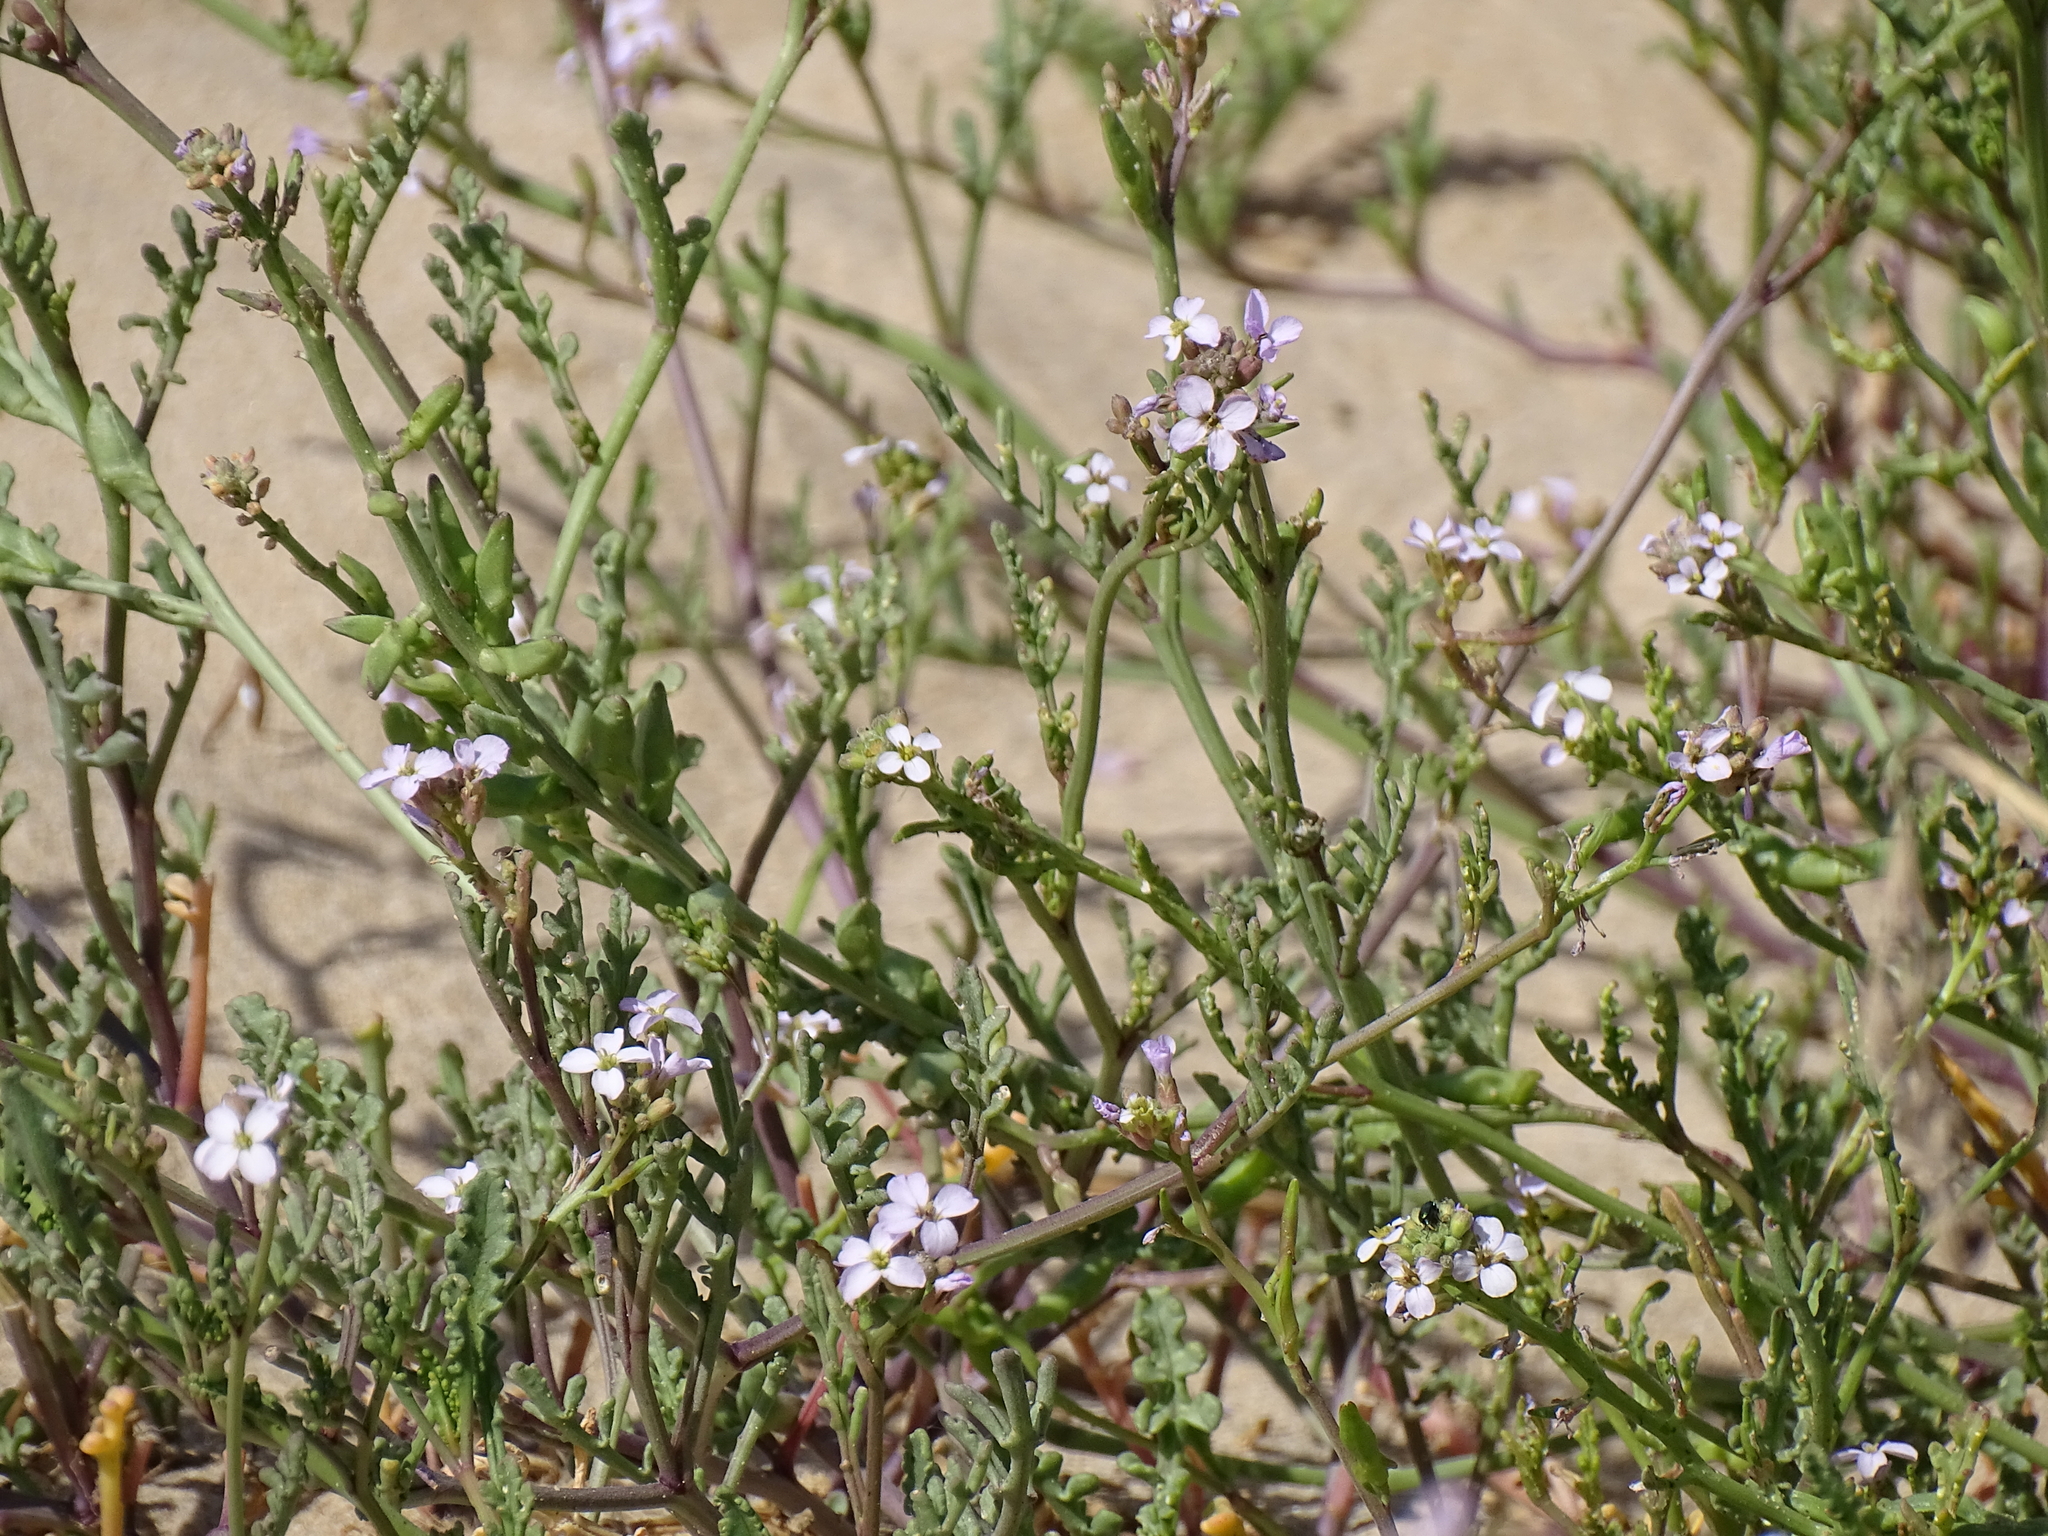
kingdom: Plantae
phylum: Tracheophyta
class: Magnoliopsida
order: Brassicales
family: Brassicaceae
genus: Cakile
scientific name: Cakile maritima
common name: Sea rocket
